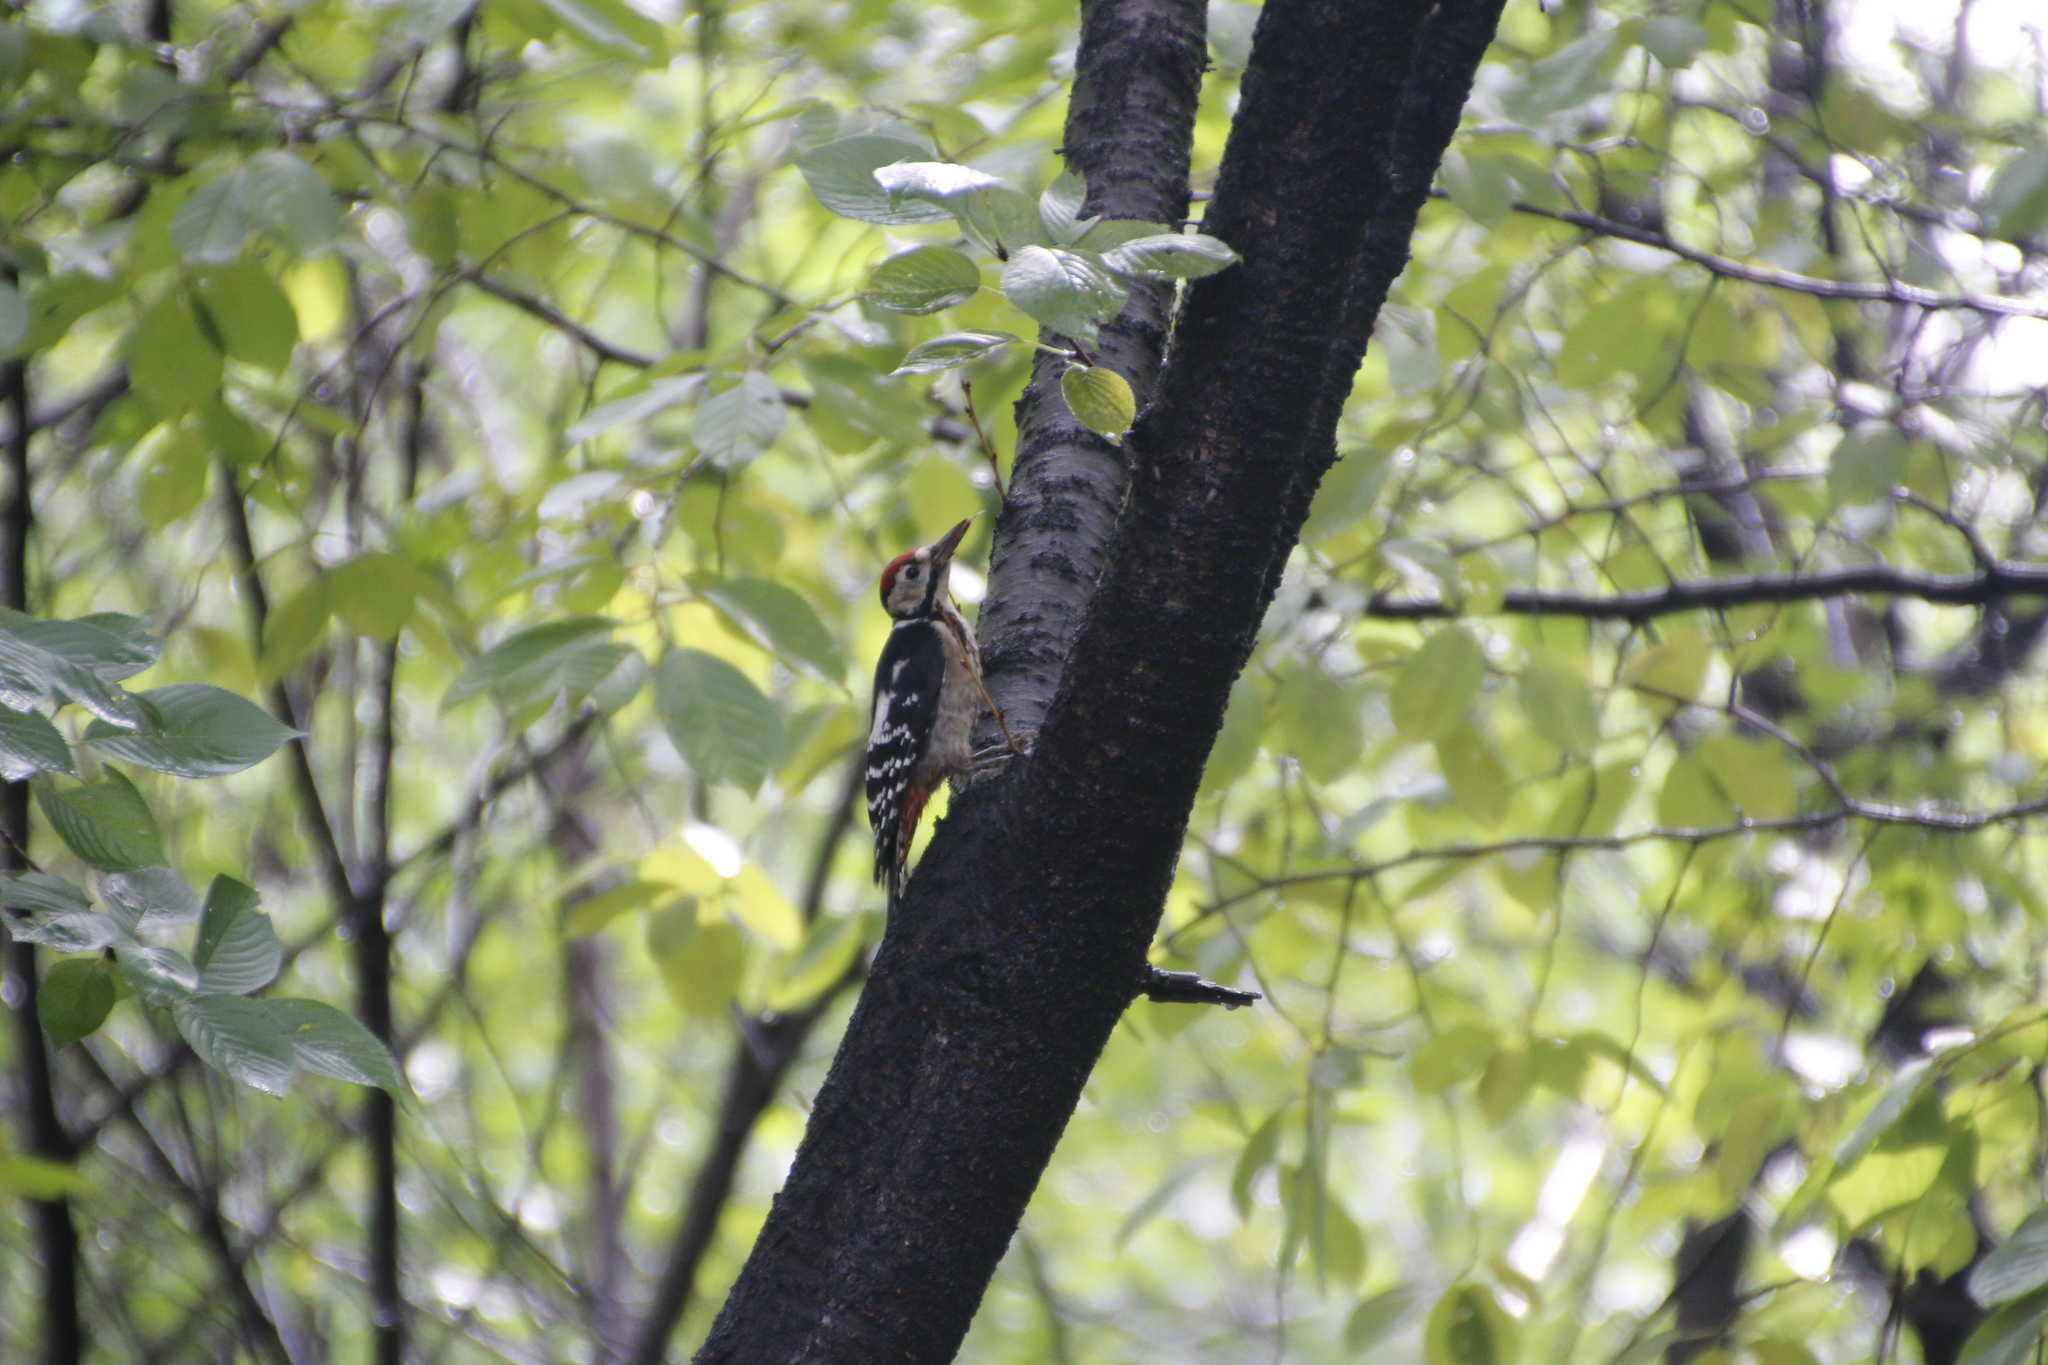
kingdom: Animalia
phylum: Chordata
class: Aves
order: Piciformes
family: Picidae
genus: Dendrocopos
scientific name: Dendrocopos leucotos
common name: White-backed woodpecker
